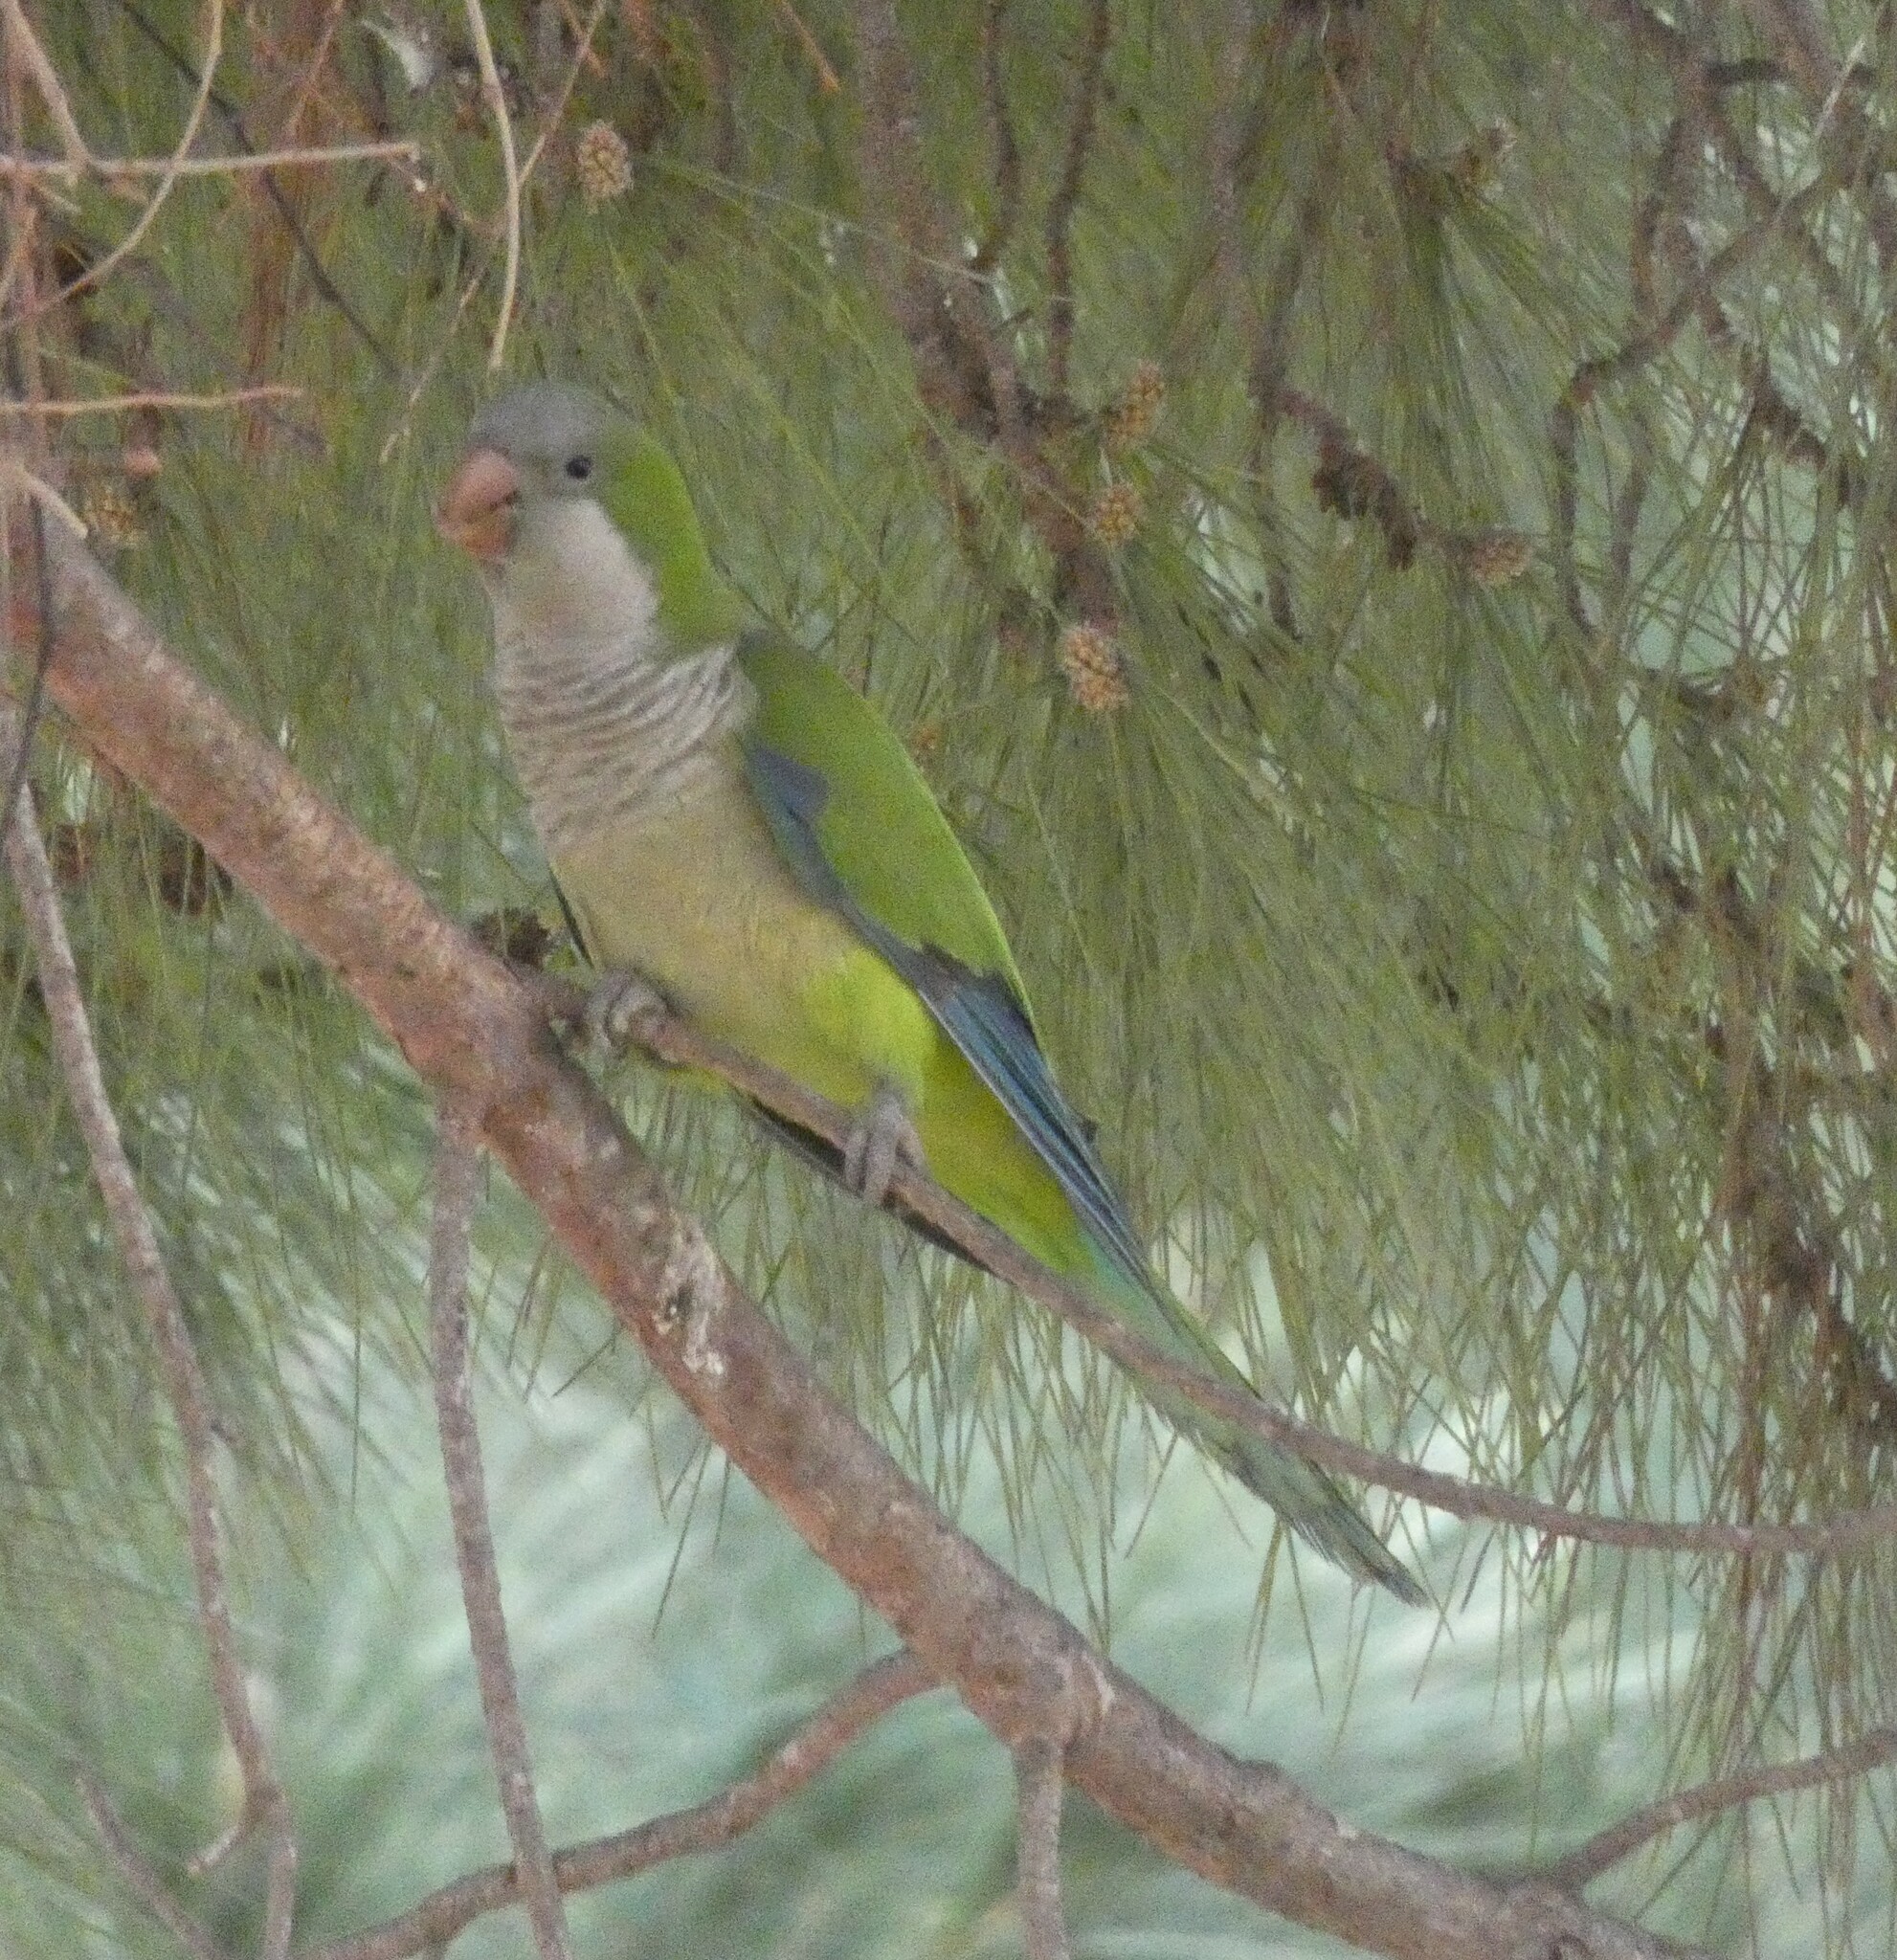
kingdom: Animalia
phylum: Chordata
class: Aves
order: Psittaciformes
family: Psittacidae
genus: Myiopsitta
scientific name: Myiopsitta monachus
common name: Monk parakeet
